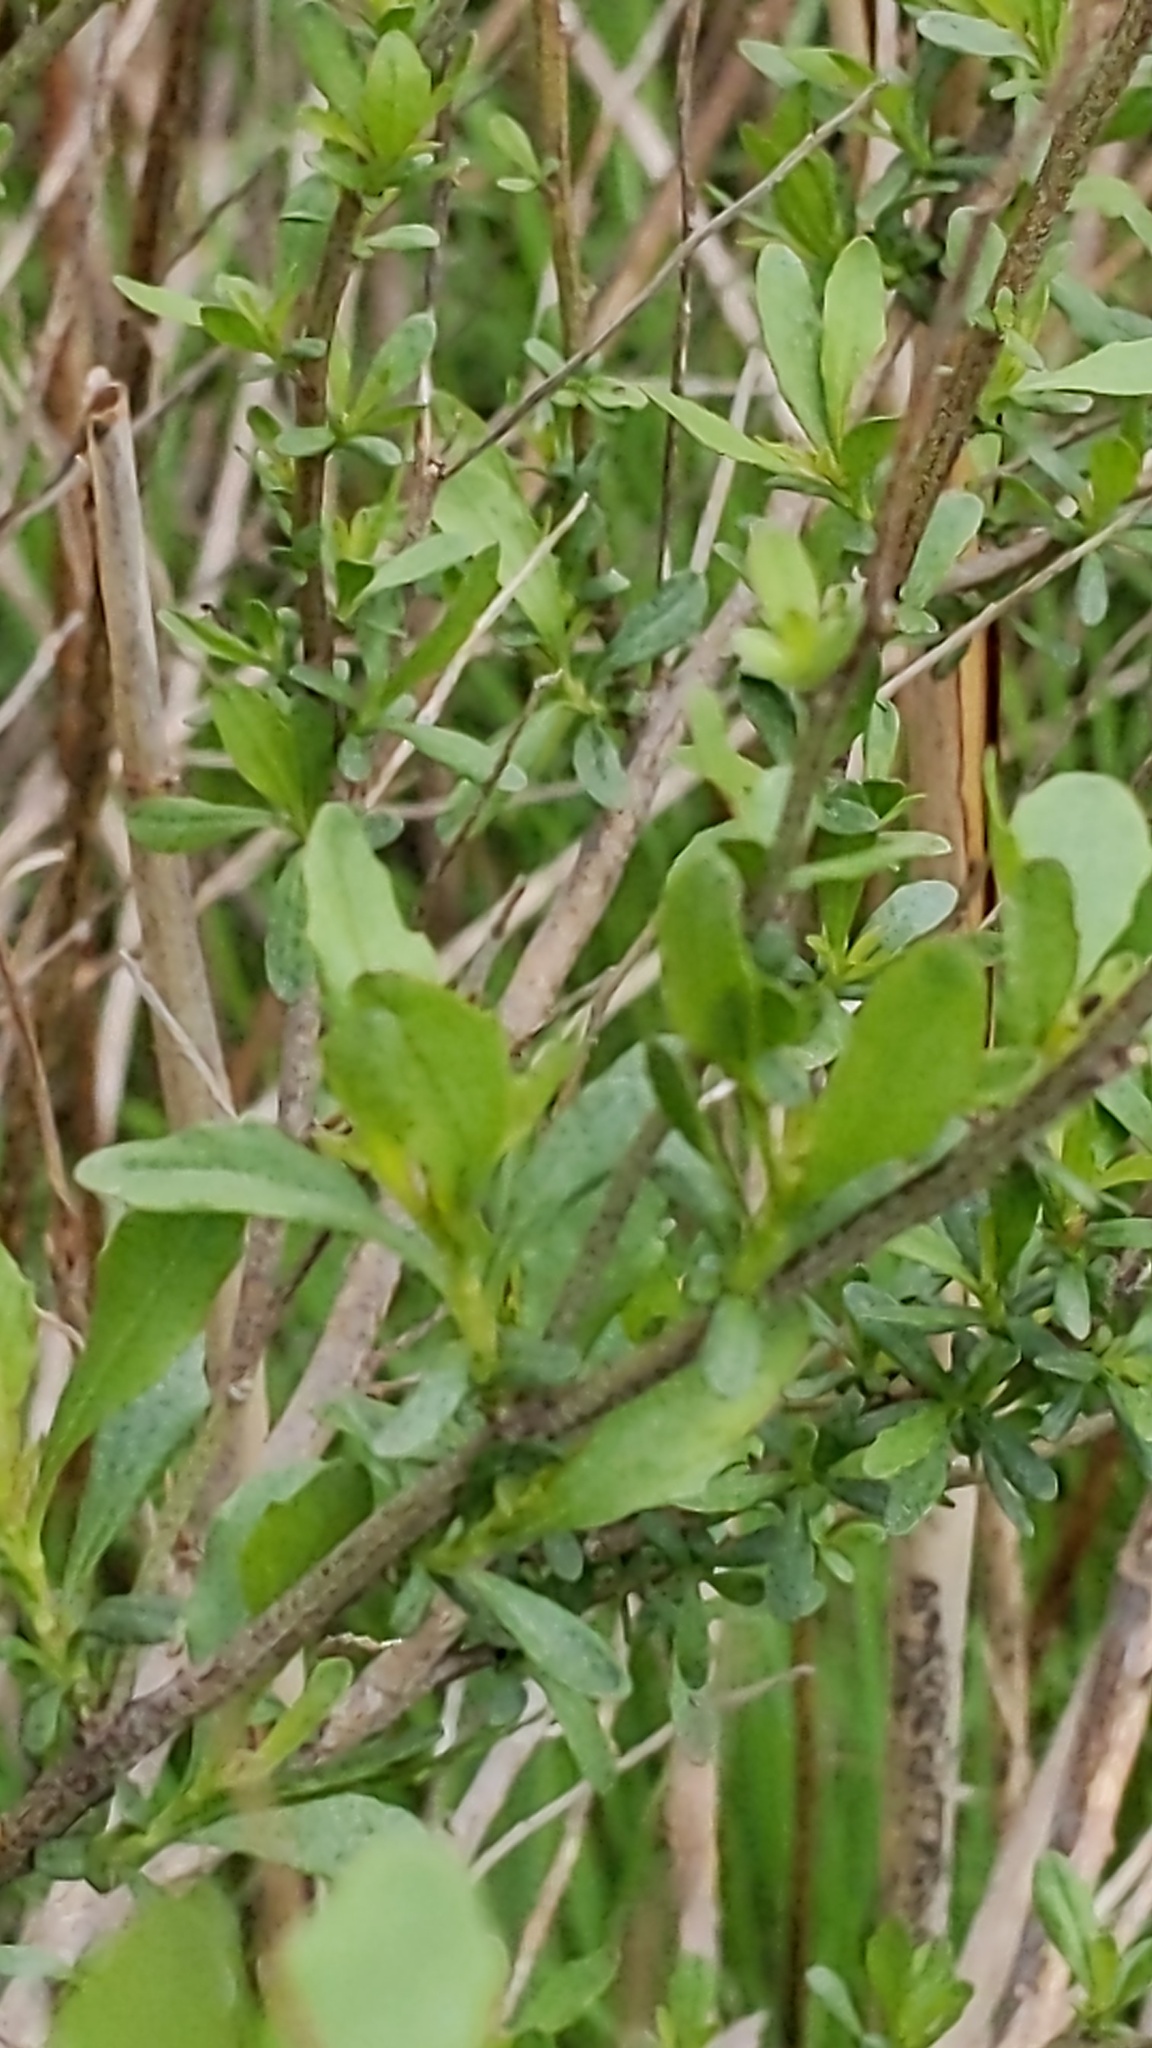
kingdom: Plantae
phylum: Tracheophyta
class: Magnoliopsida
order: Asterales
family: Asteraceae
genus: Baccharis
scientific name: Baccharis halimifolia
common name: Eastern baccharis
